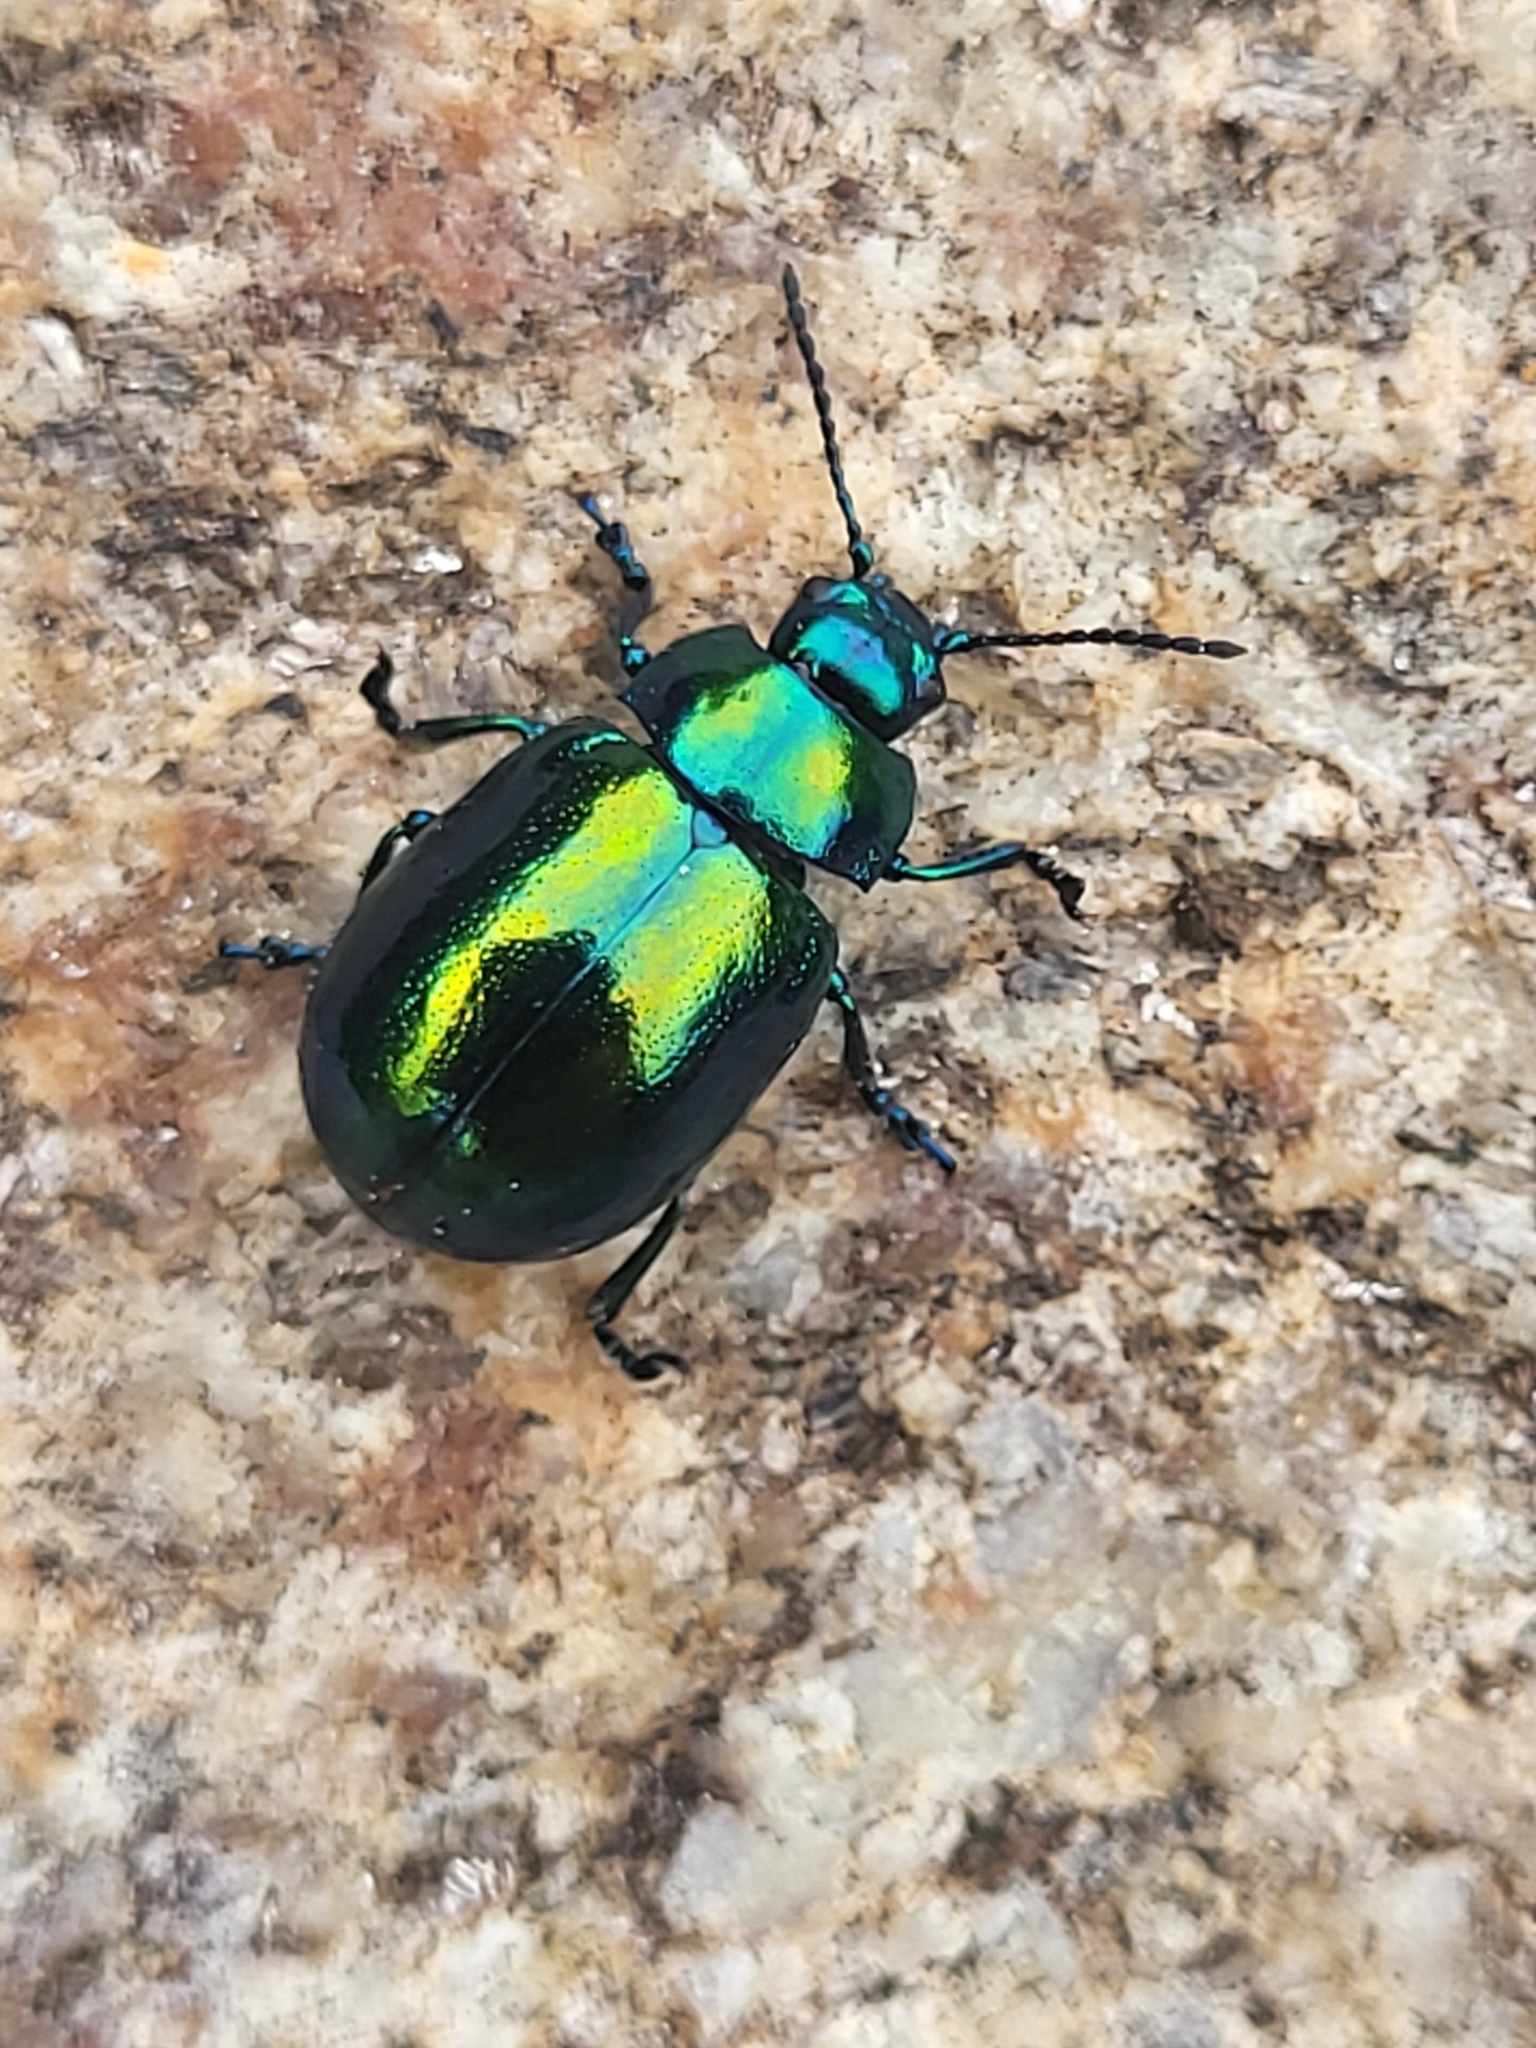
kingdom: Animalia
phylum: Arthropoda
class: Insecta
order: Coleoptera
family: Chrysomelidae
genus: Chrysolina
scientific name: Chrysolina herbacea
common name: Mint leaf beatle
